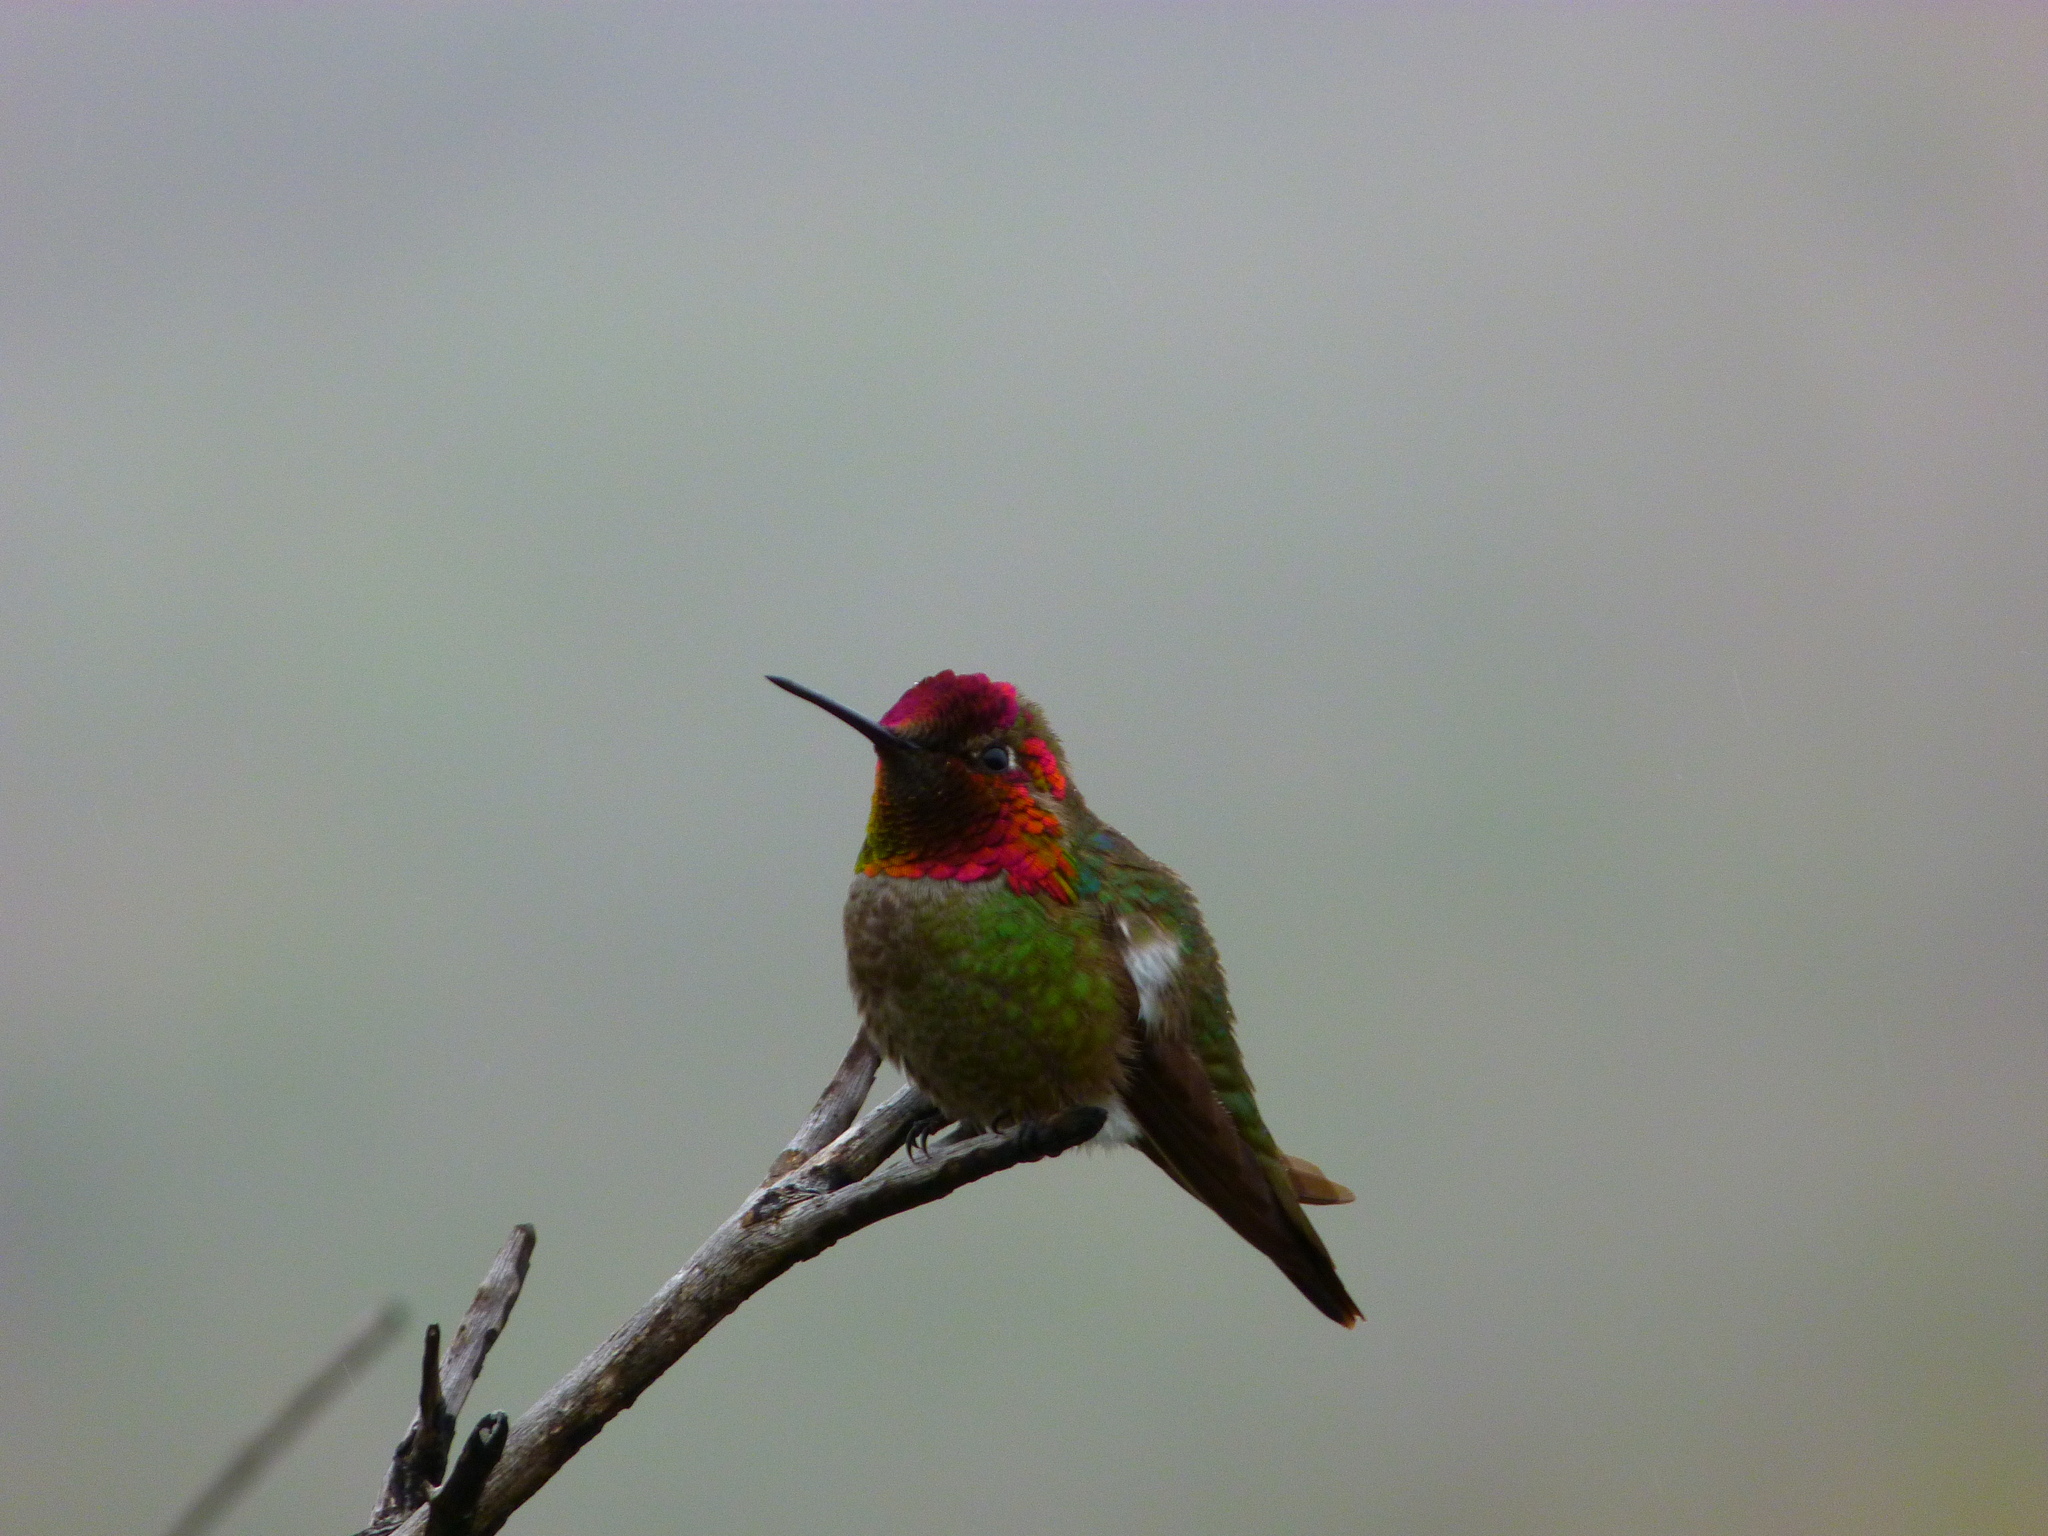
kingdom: Animalia
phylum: Chordata
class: Aves
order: Apodiformes
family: Trochilidae
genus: Calypte
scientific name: Calypte anna
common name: Anna's hummingbird
